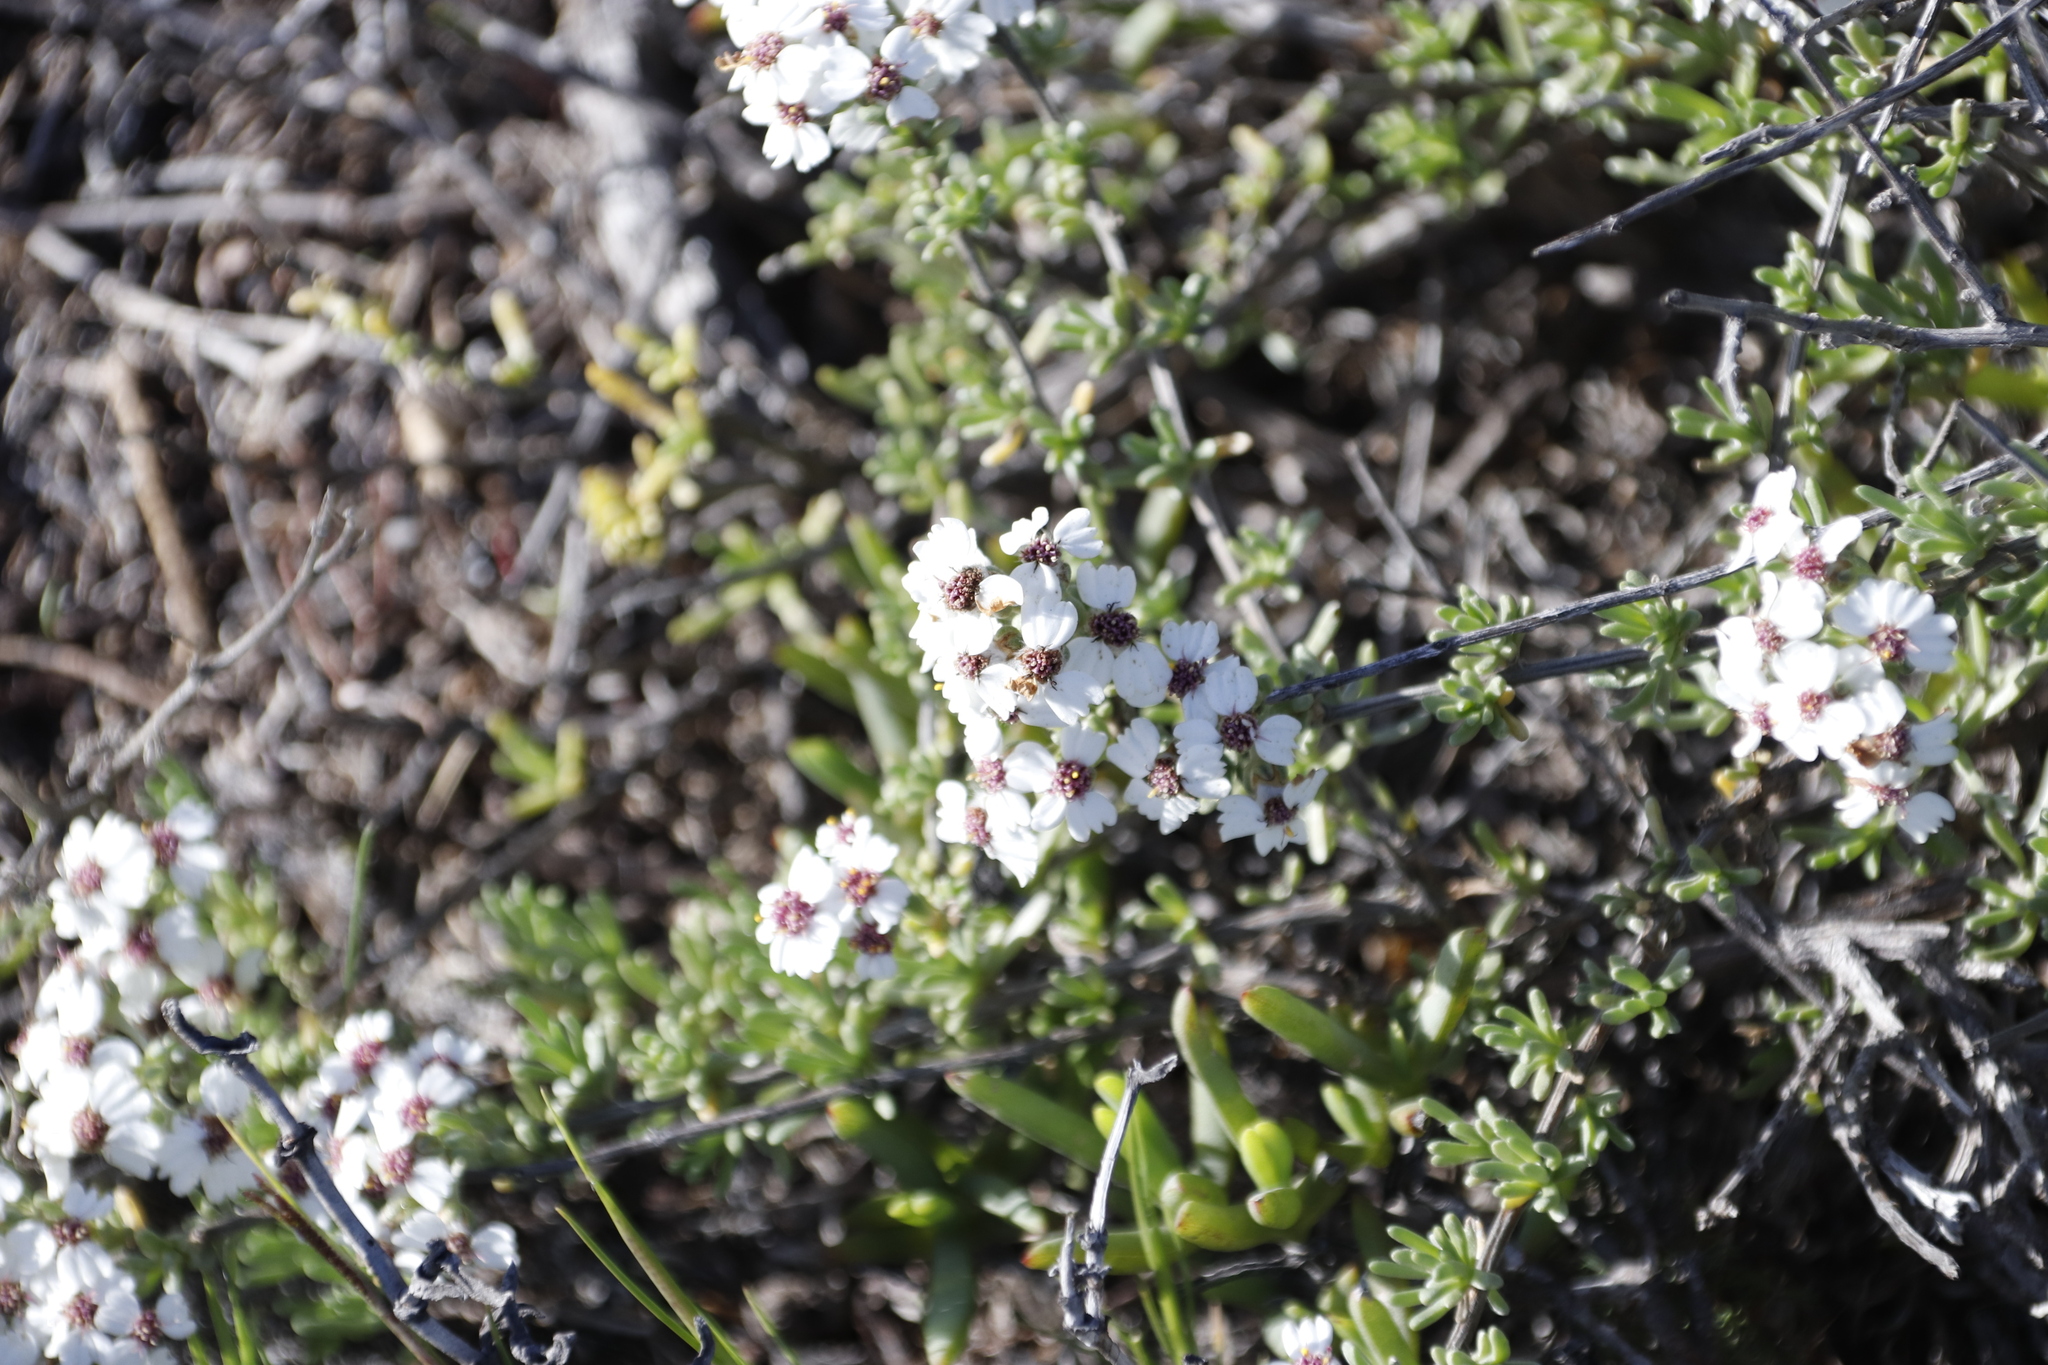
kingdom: Plantae
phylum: Tracheophyta
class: Magnoliopsida
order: Asterales
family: Asteraceae
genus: Eriocephalus
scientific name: Eriocephalus africanus
